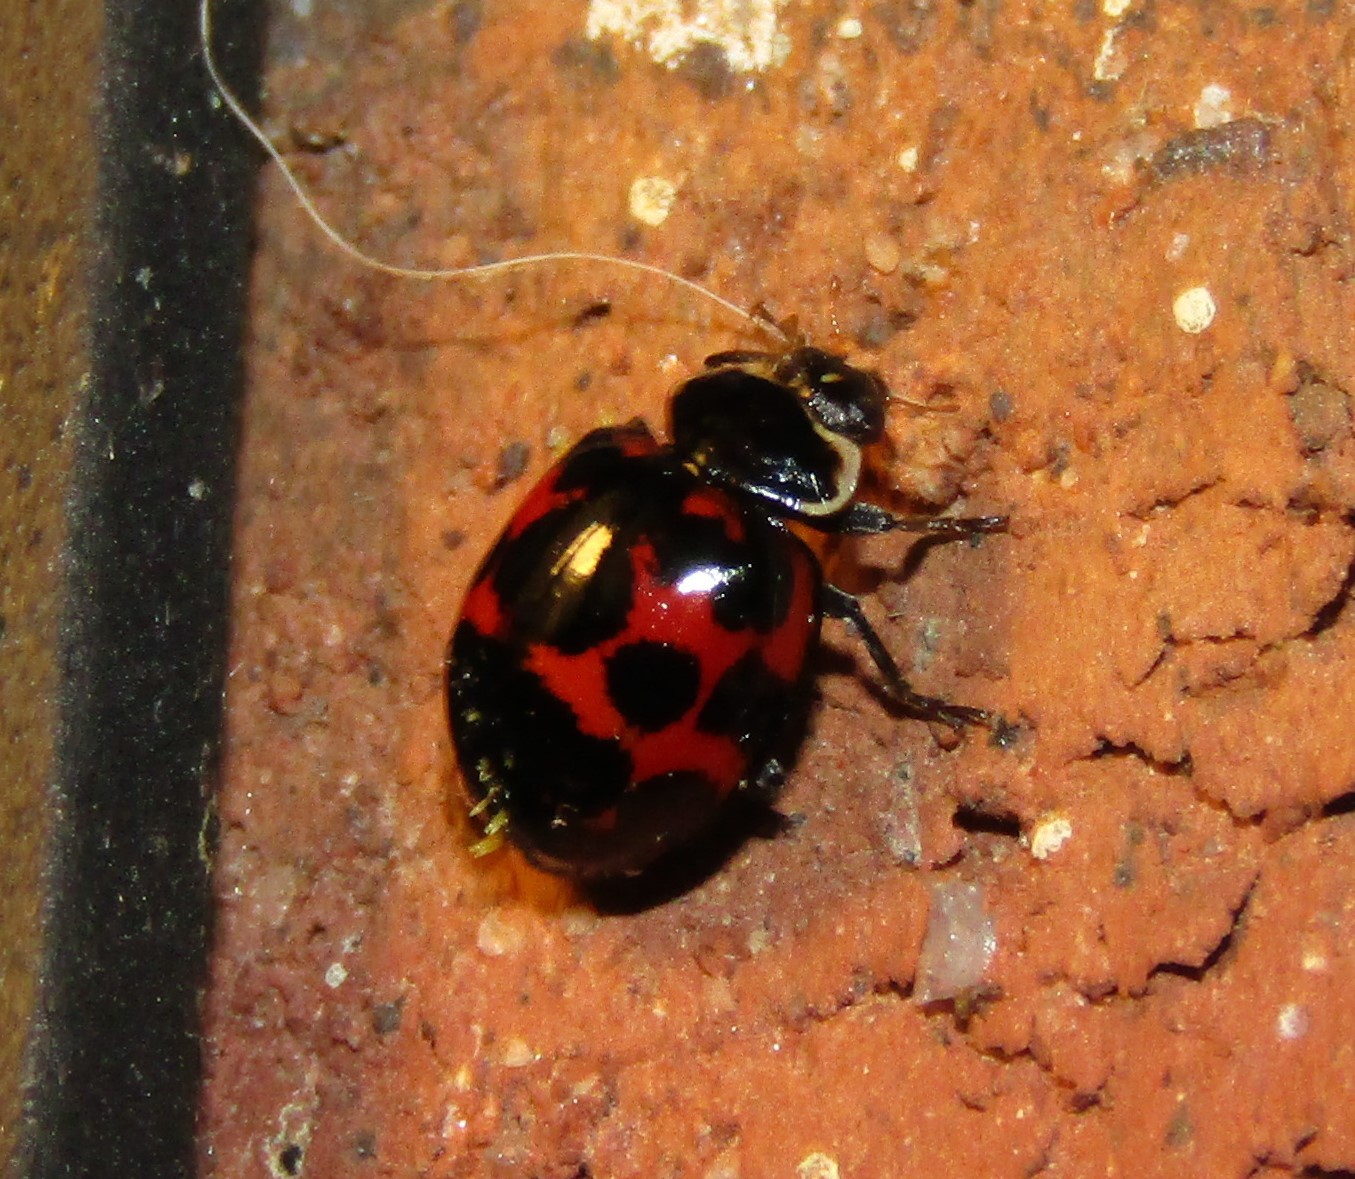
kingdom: Animalia
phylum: Arthropoda
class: Insecta
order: Coleoptera
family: Coccinellidae
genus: Harmonia
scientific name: Harmonia axyridis
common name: Harlequin ladybird
